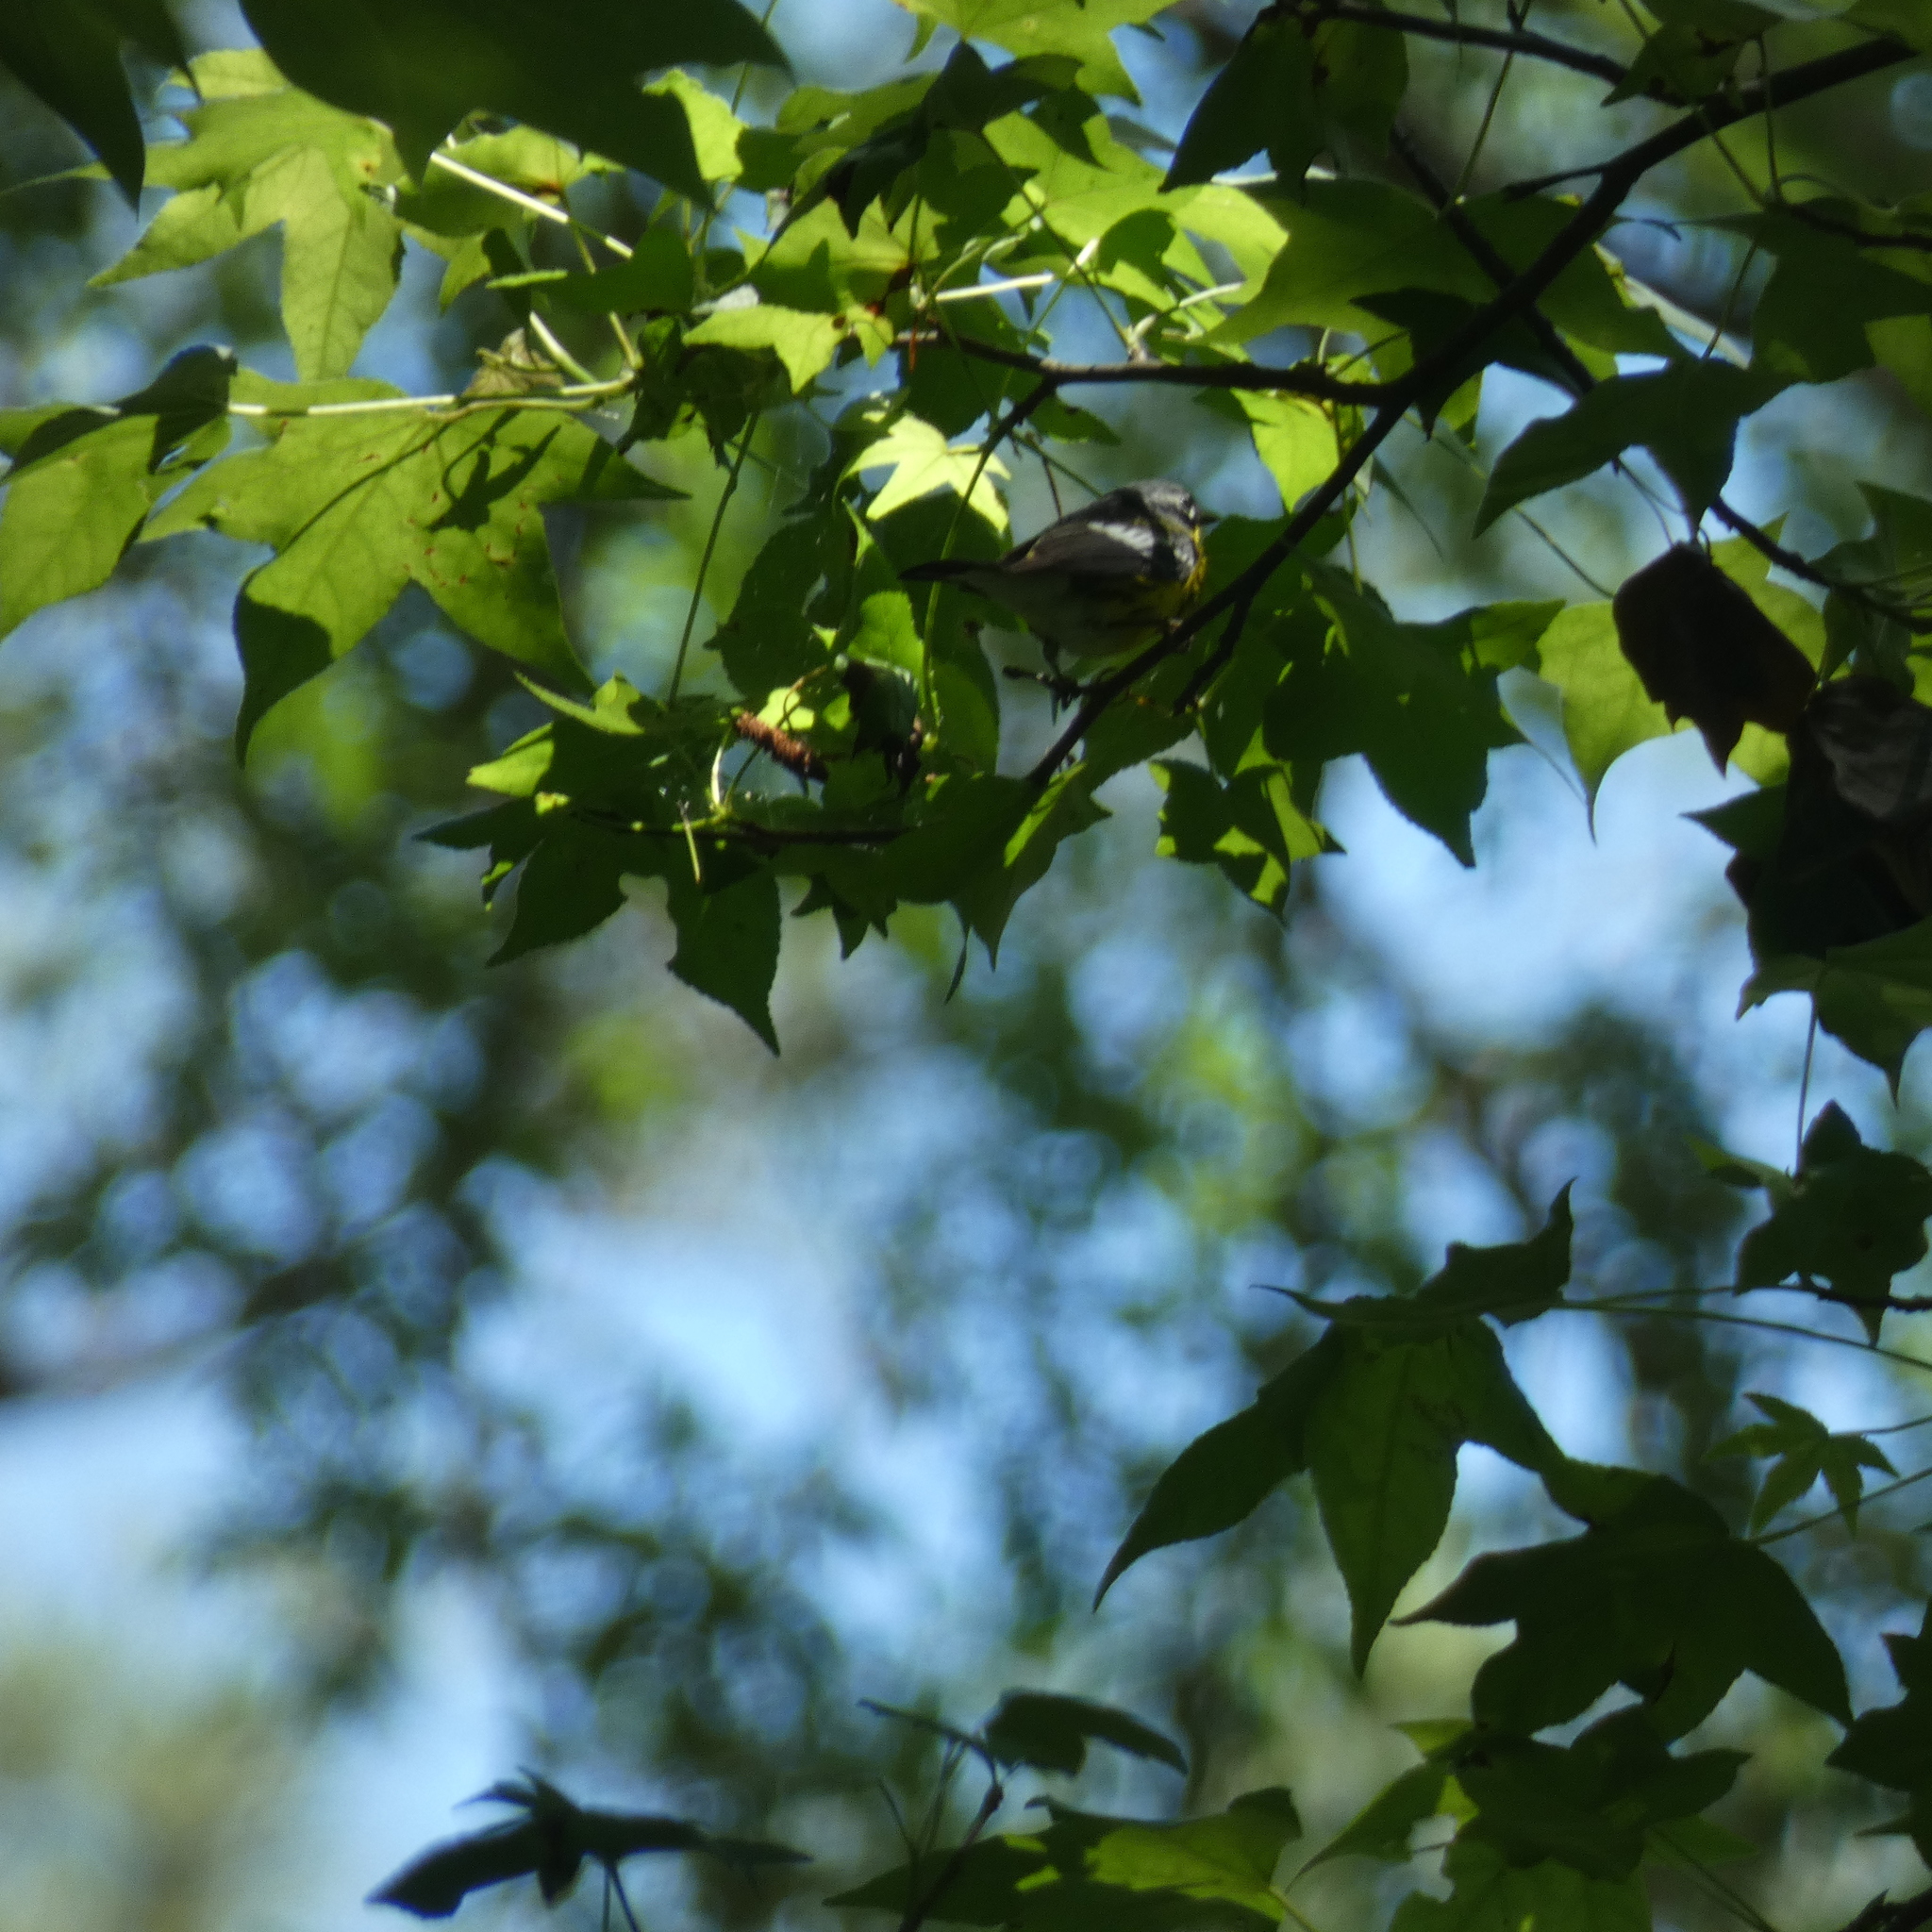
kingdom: Animalia
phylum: Chordata
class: Aves
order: Passeriformes
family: Parulidae
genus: Setophaga
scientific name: Setophaga magnolia
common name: Magnolia warbler
